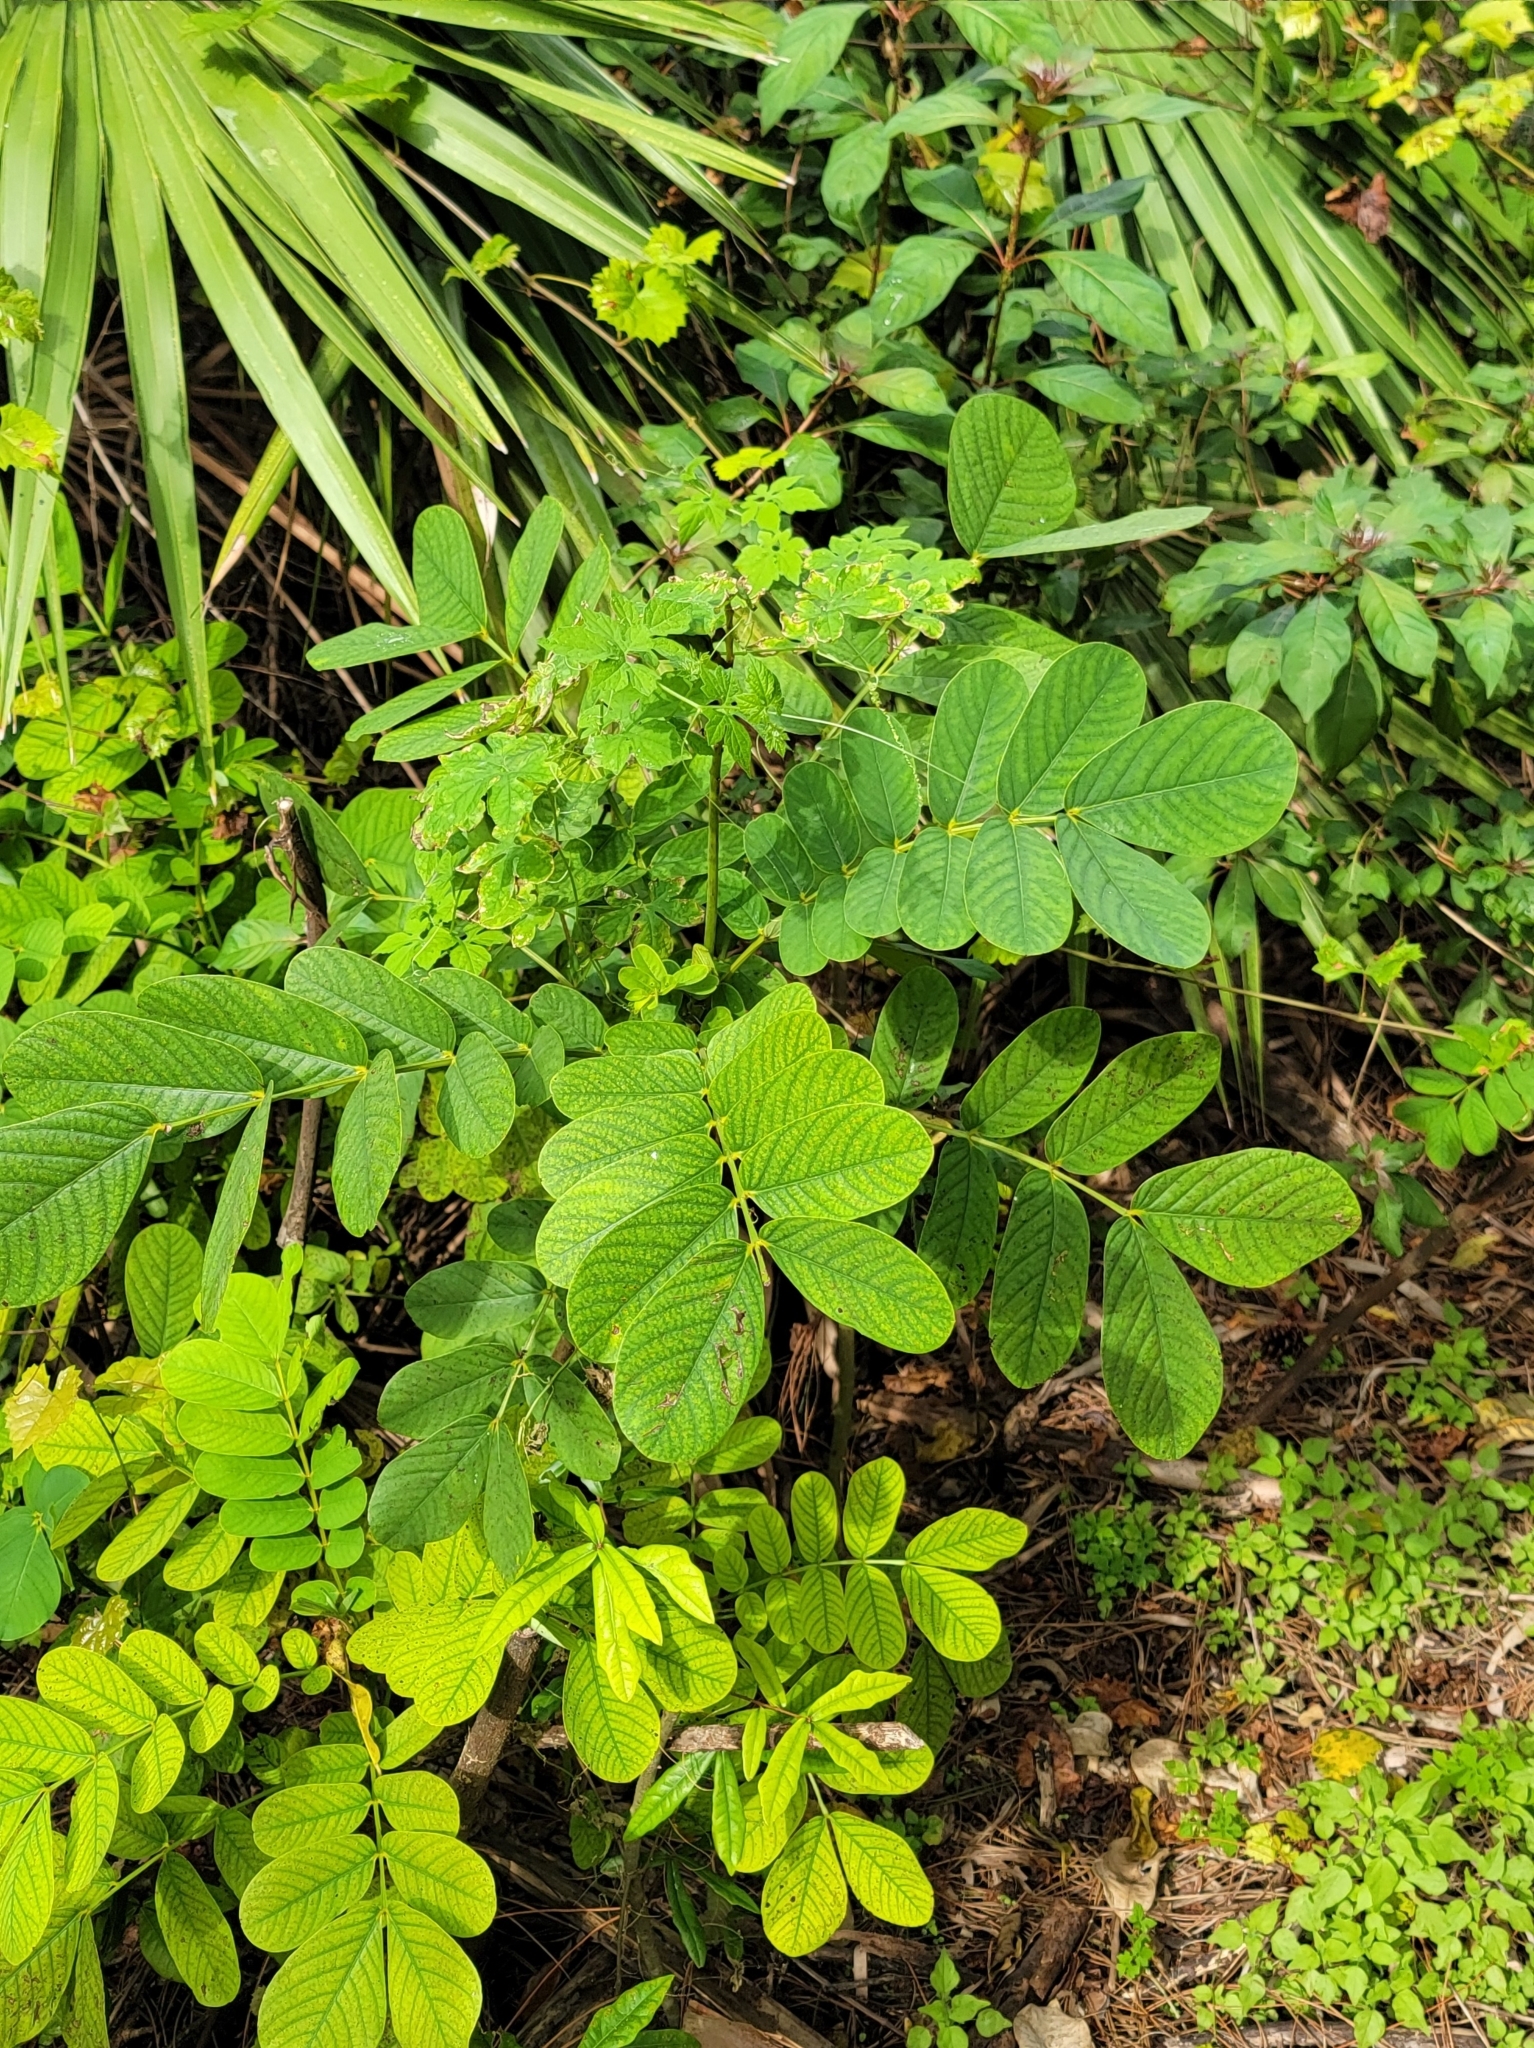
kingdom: Plantae
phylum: Tracheophyta
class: Magnoliopsida
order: Fabales
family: Fabaceae
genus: Senna
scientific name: Senna alata
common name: Emperor's candlesticks
